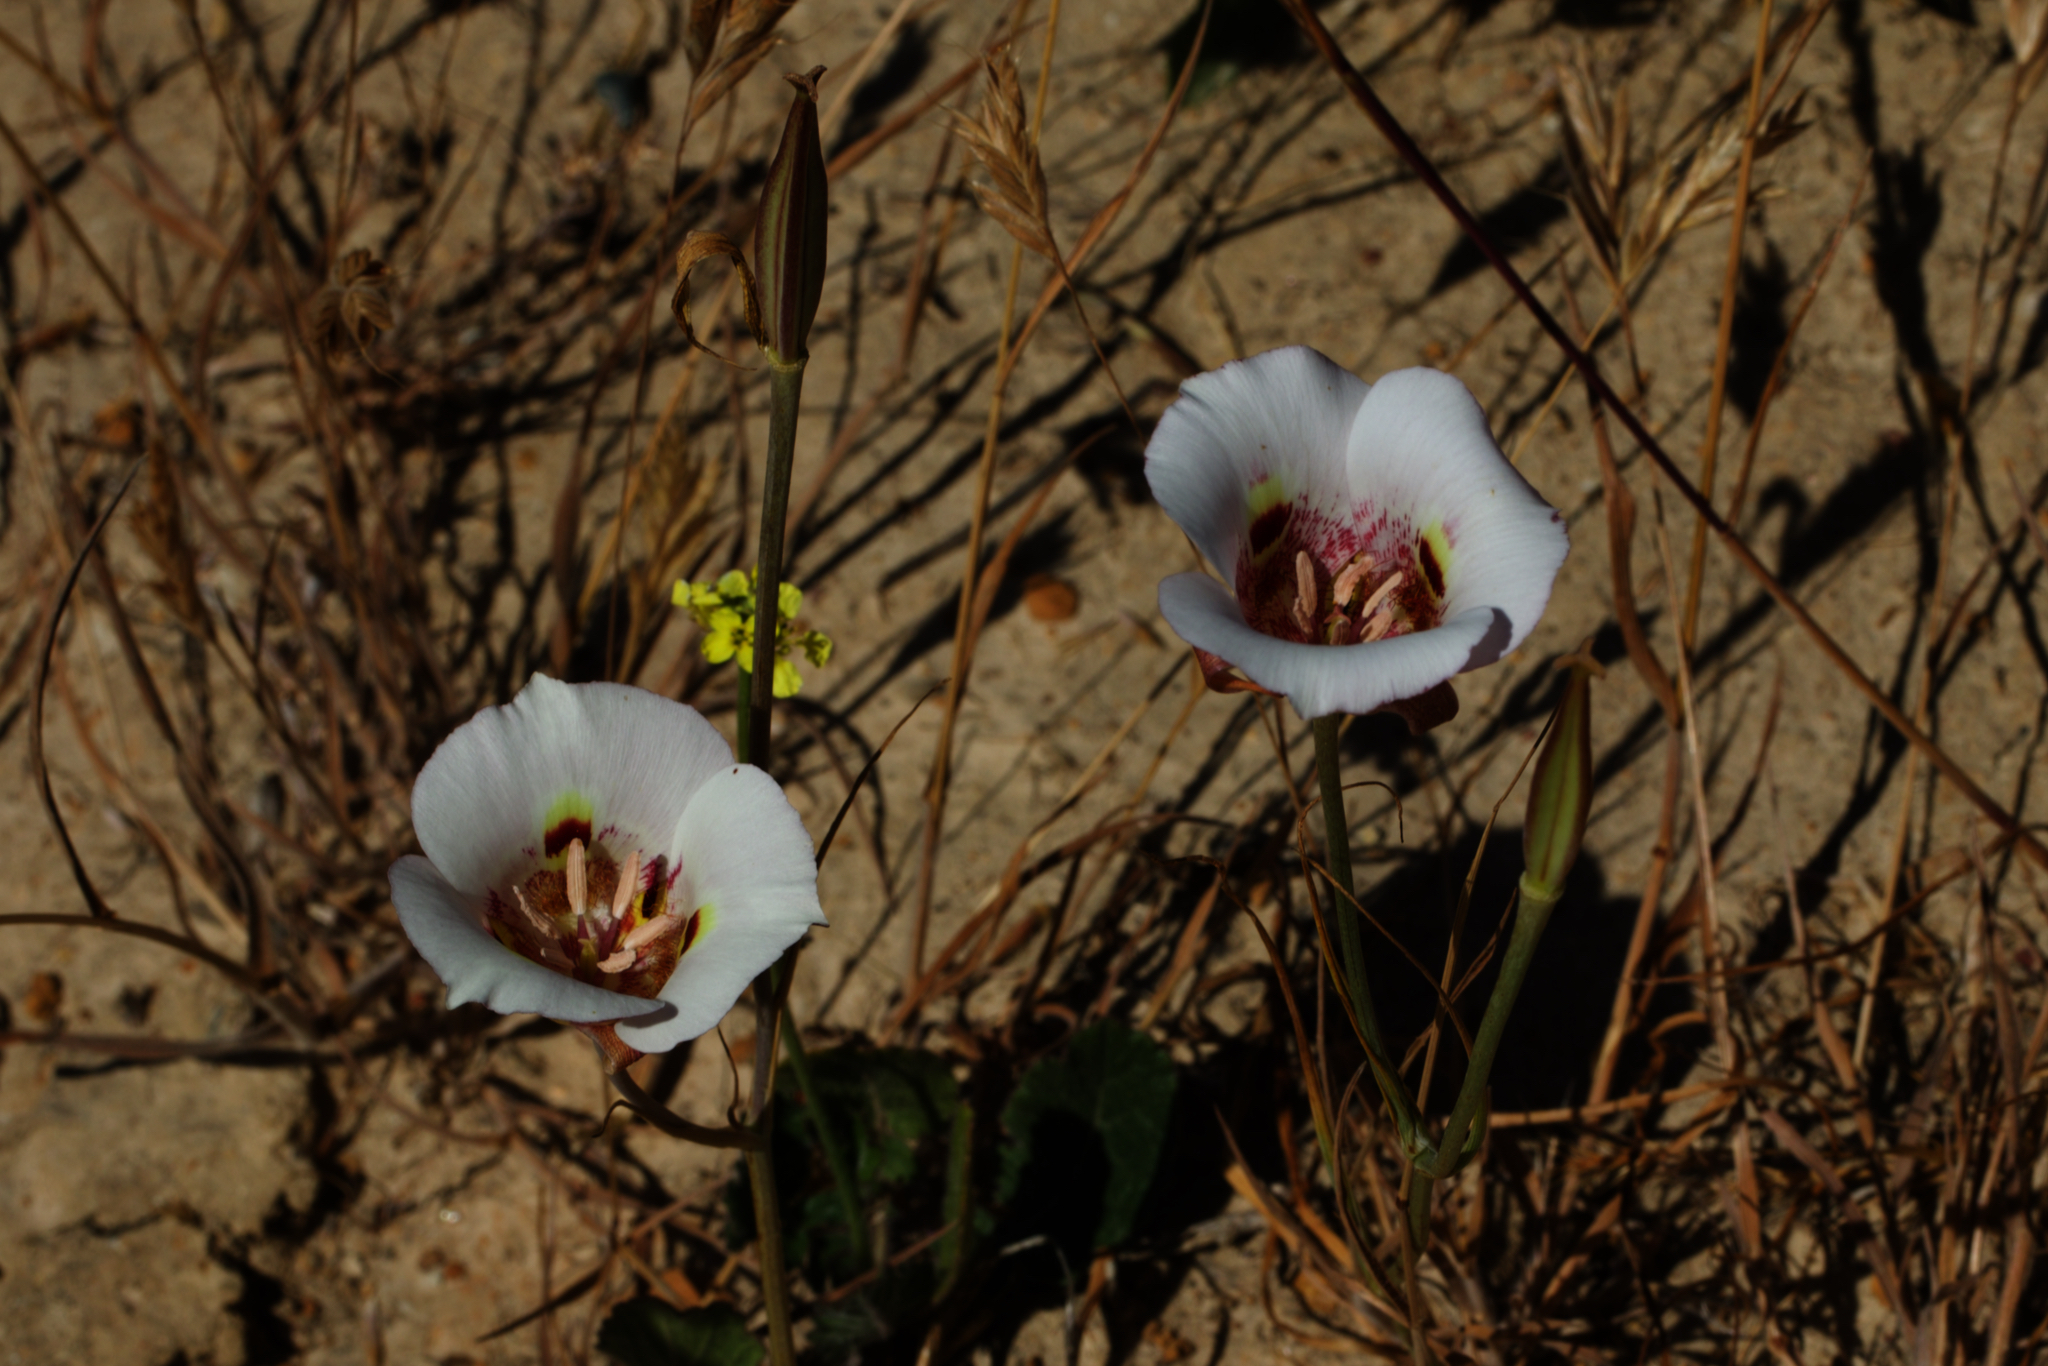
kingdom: Plantae
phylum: Tracheophyta
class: Liliopsida
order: Liliales
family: Liliaceae
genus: Calochortus
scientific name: Calochortus argillosus
